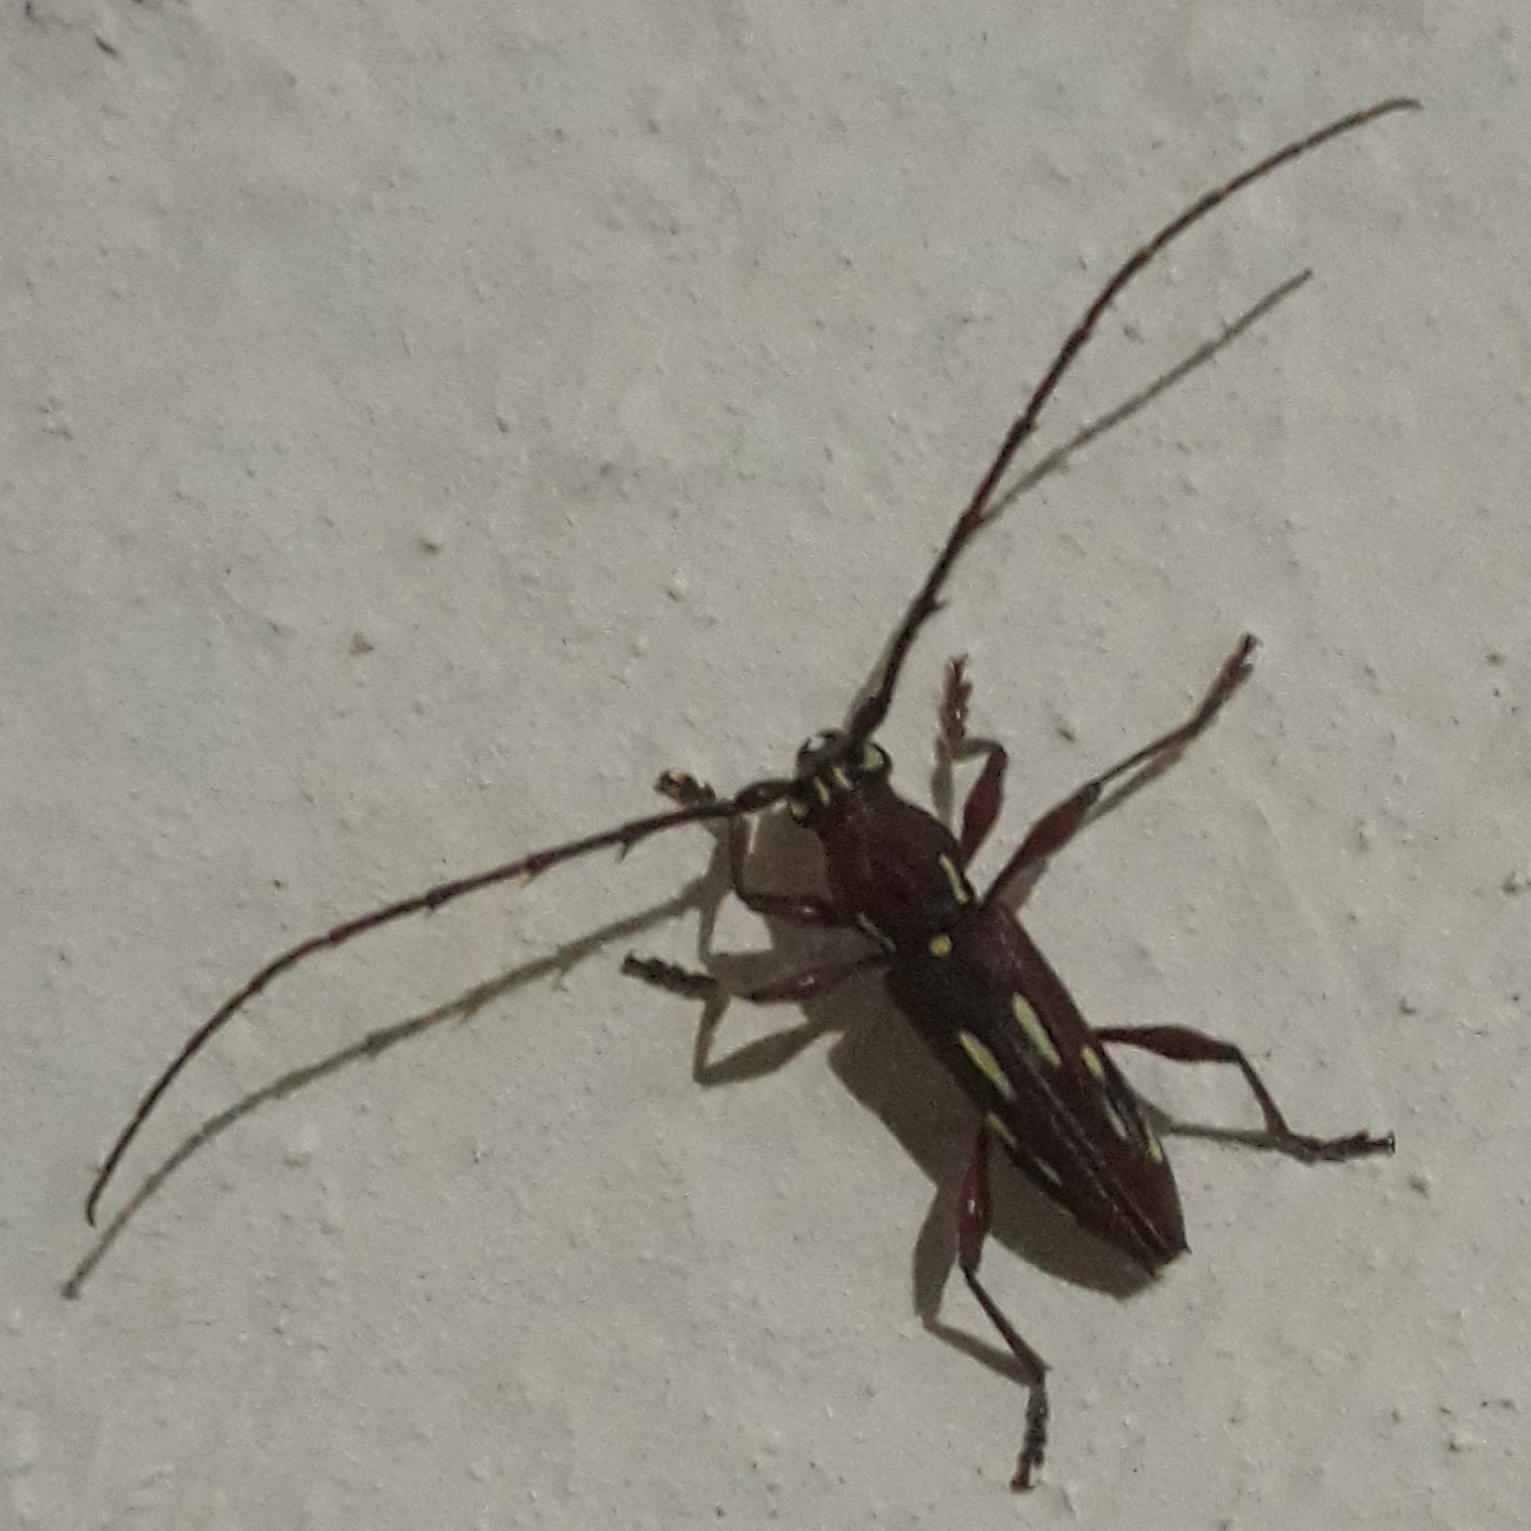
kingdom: Animalia
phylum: Arthropoda
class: Insecta
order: Coleoptera
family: Cerambycidae
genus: Ambonus
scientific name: Ambonus distinctus
